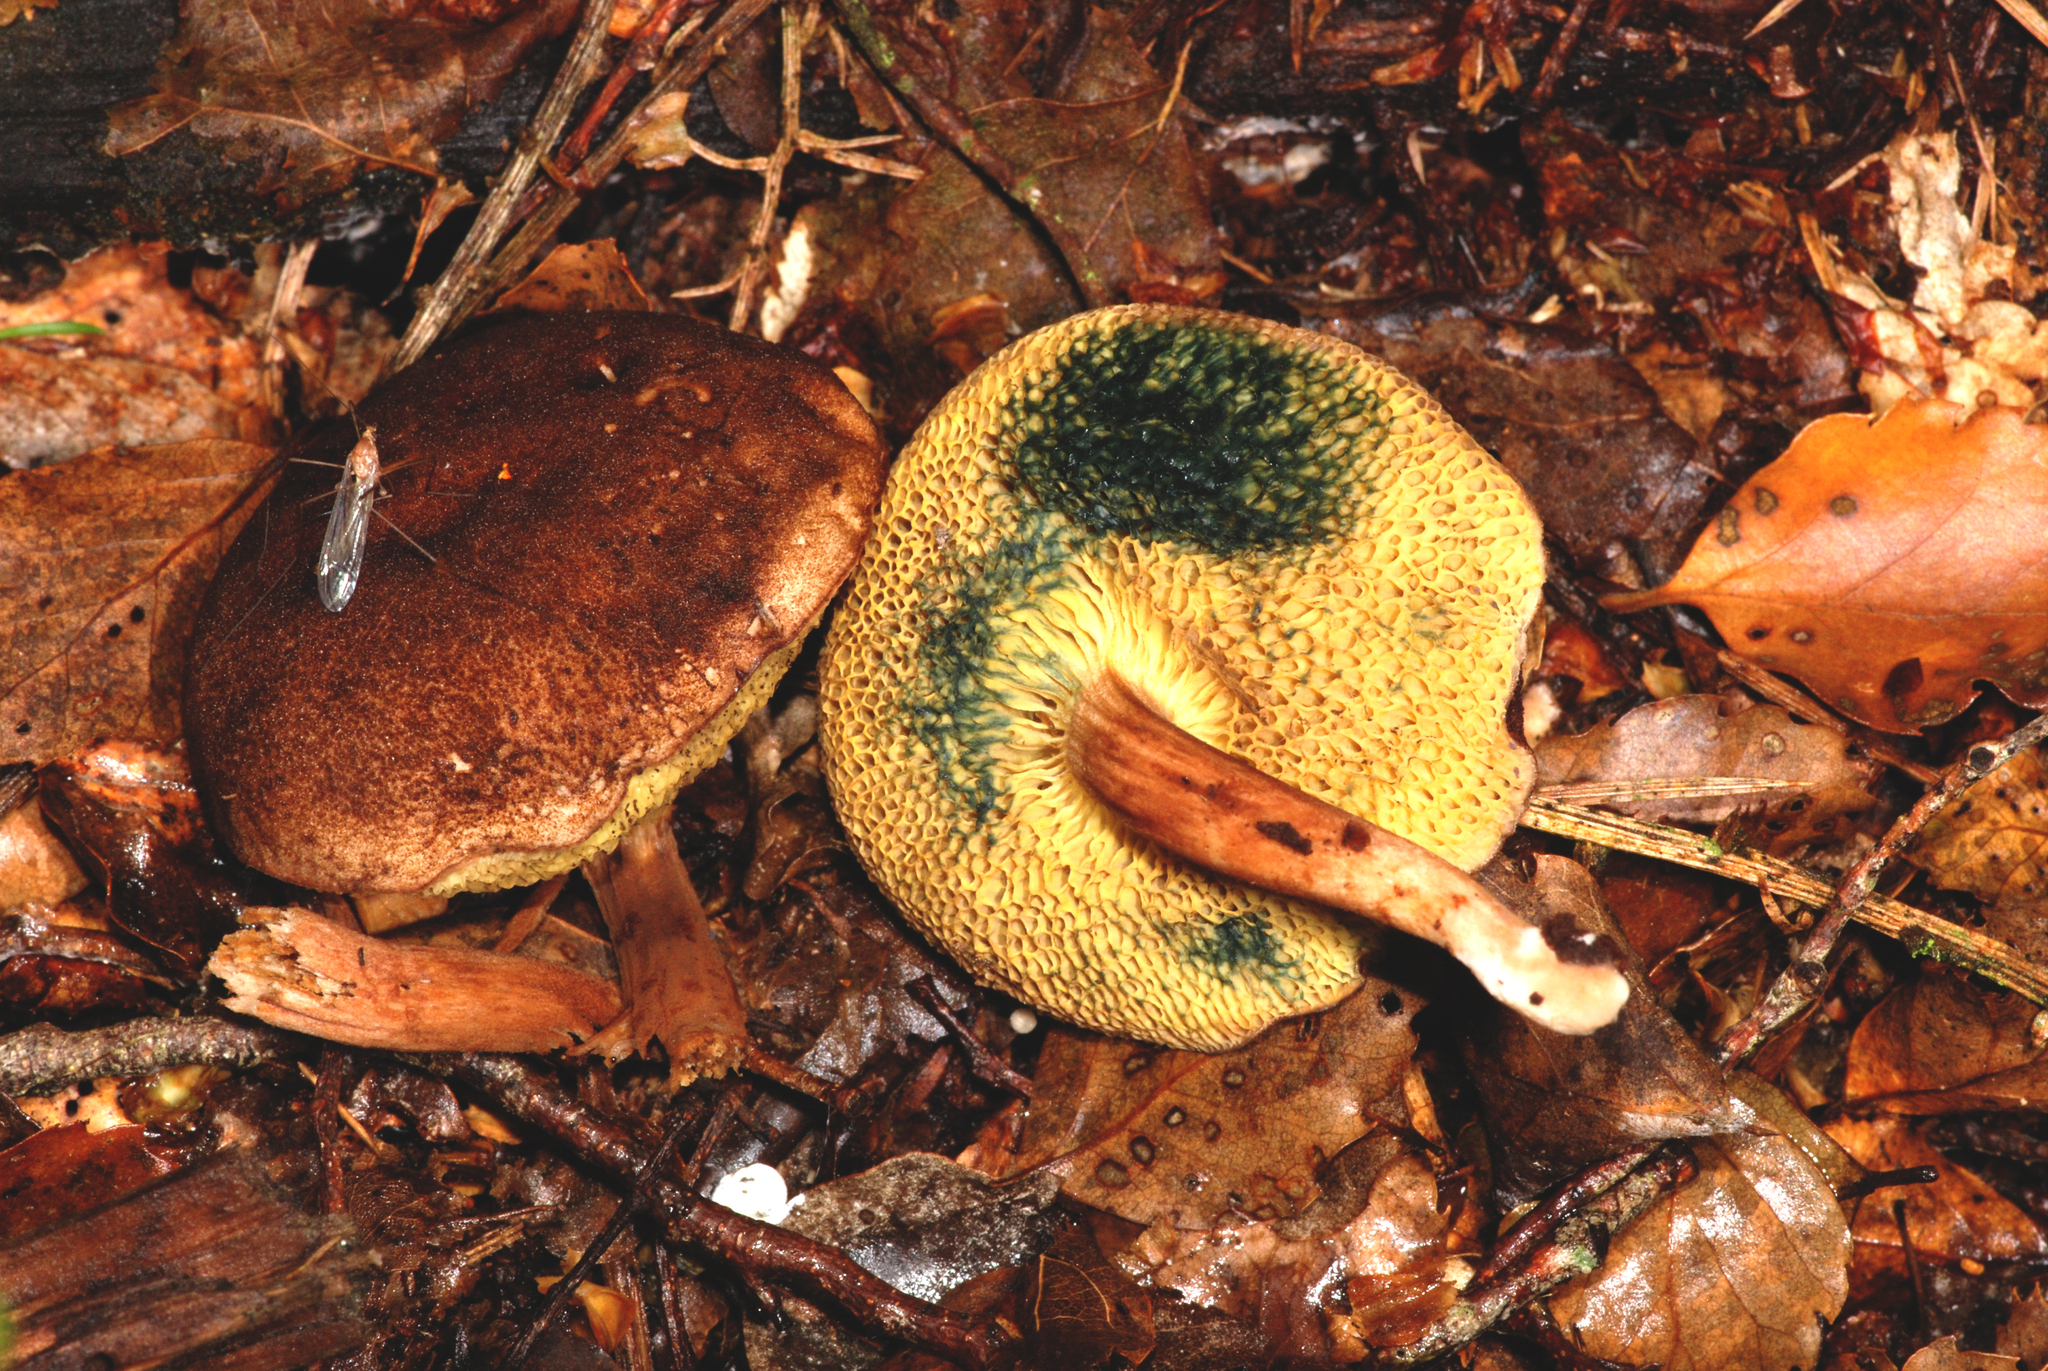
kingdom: Fungi
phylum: Basidiomycota
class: Agaricomycetes
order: Boletales
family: Boletaceae
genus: Xerocomus
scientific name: Xerocomus squamulosus
